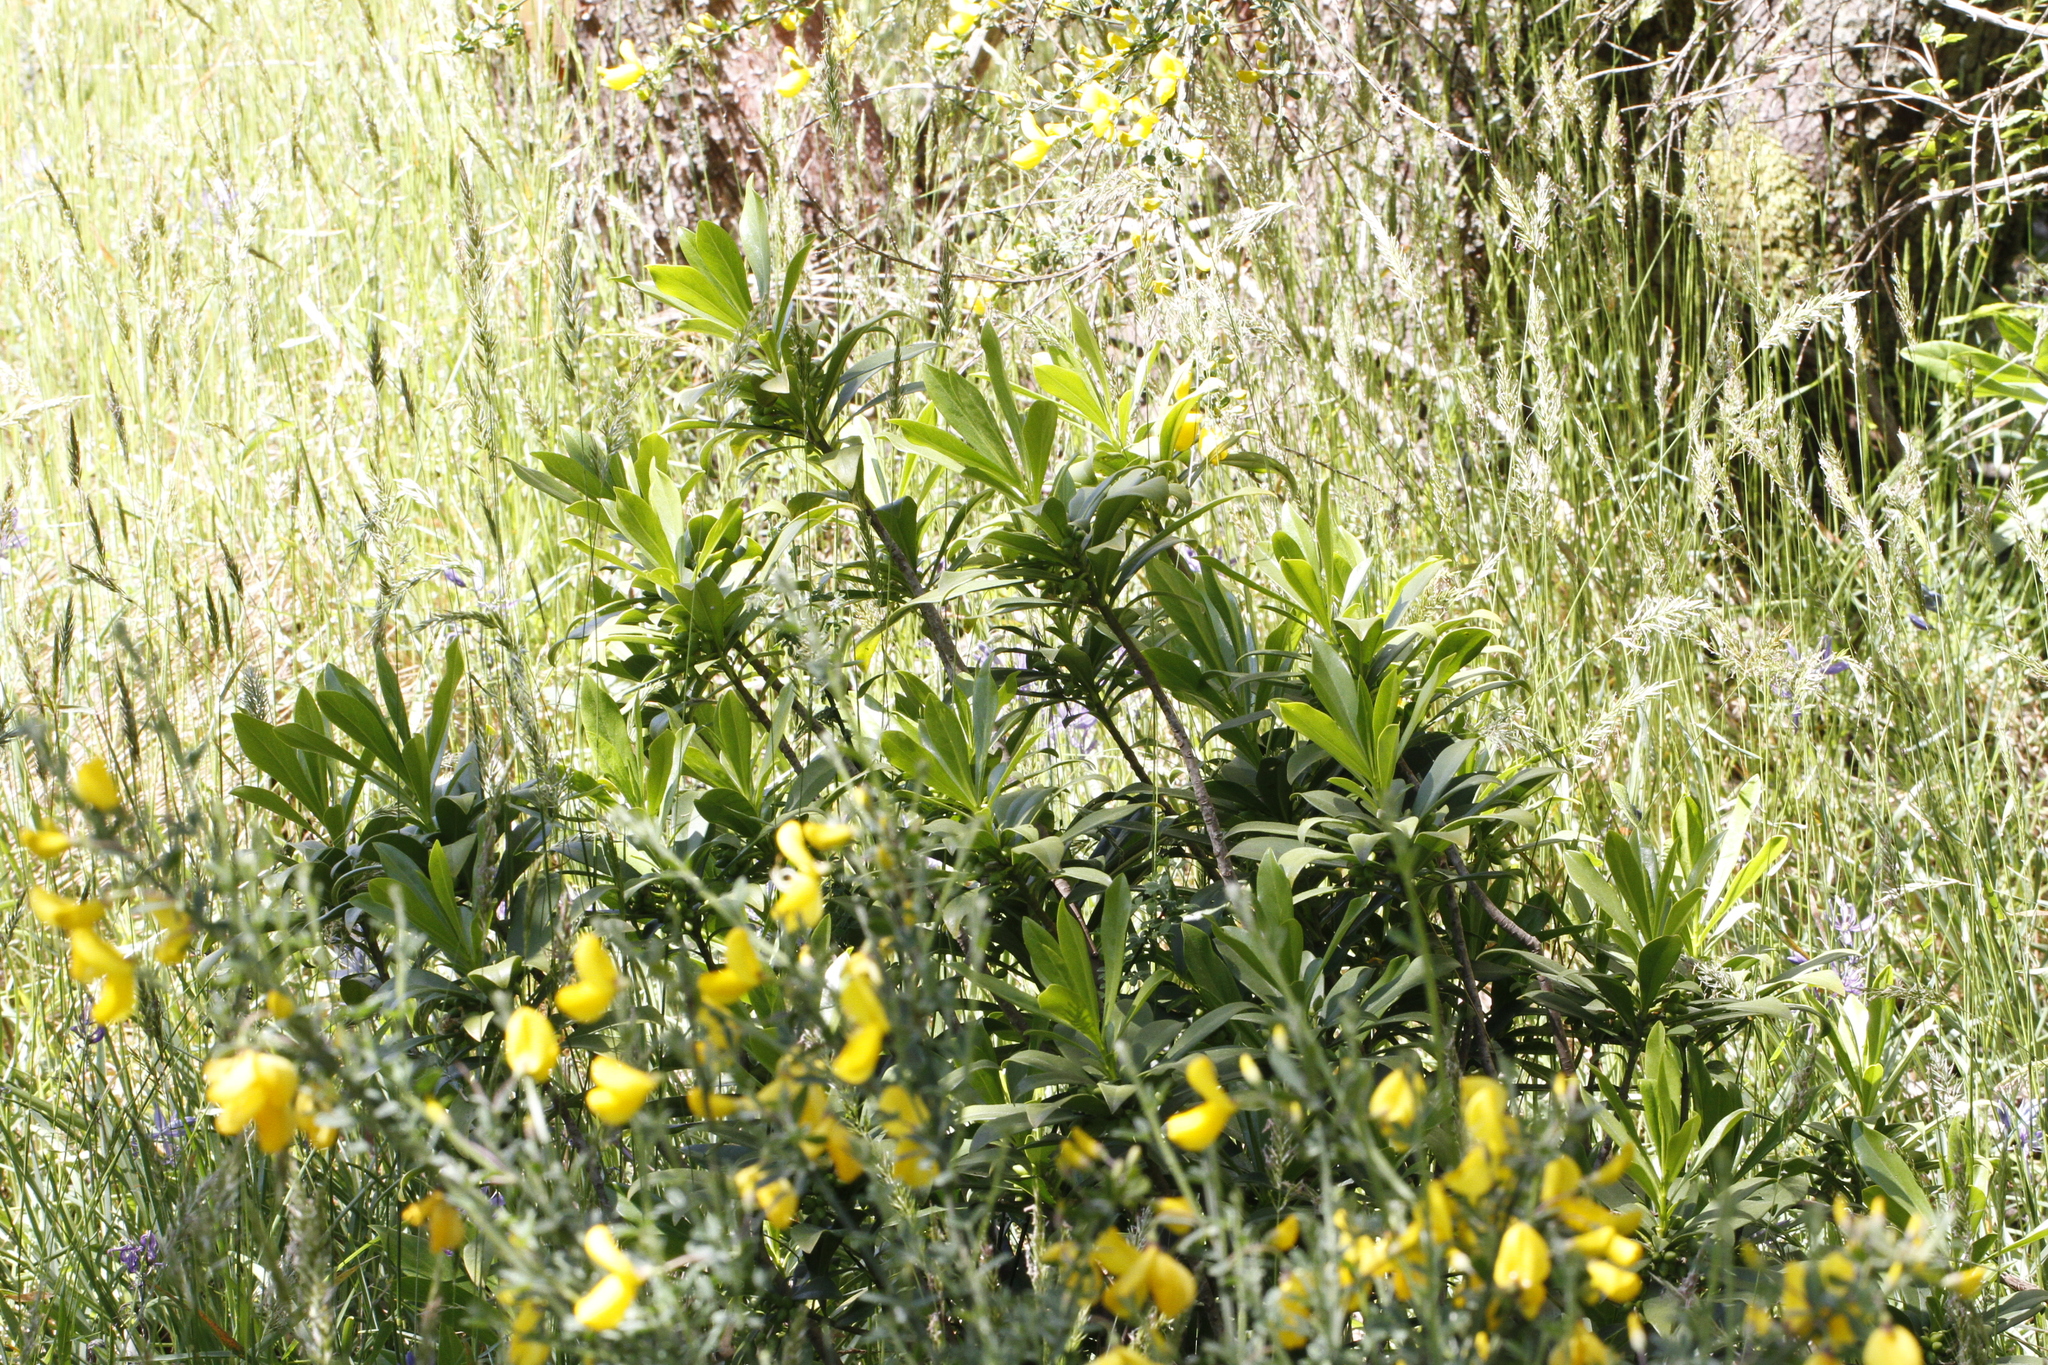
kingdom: Plantae
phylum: Tracheophyta
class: Magnoliopsida
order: Malvales
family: Thymelaeaceae
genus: Daphne
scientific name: Daphne laureola
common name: Spurge-laurel
